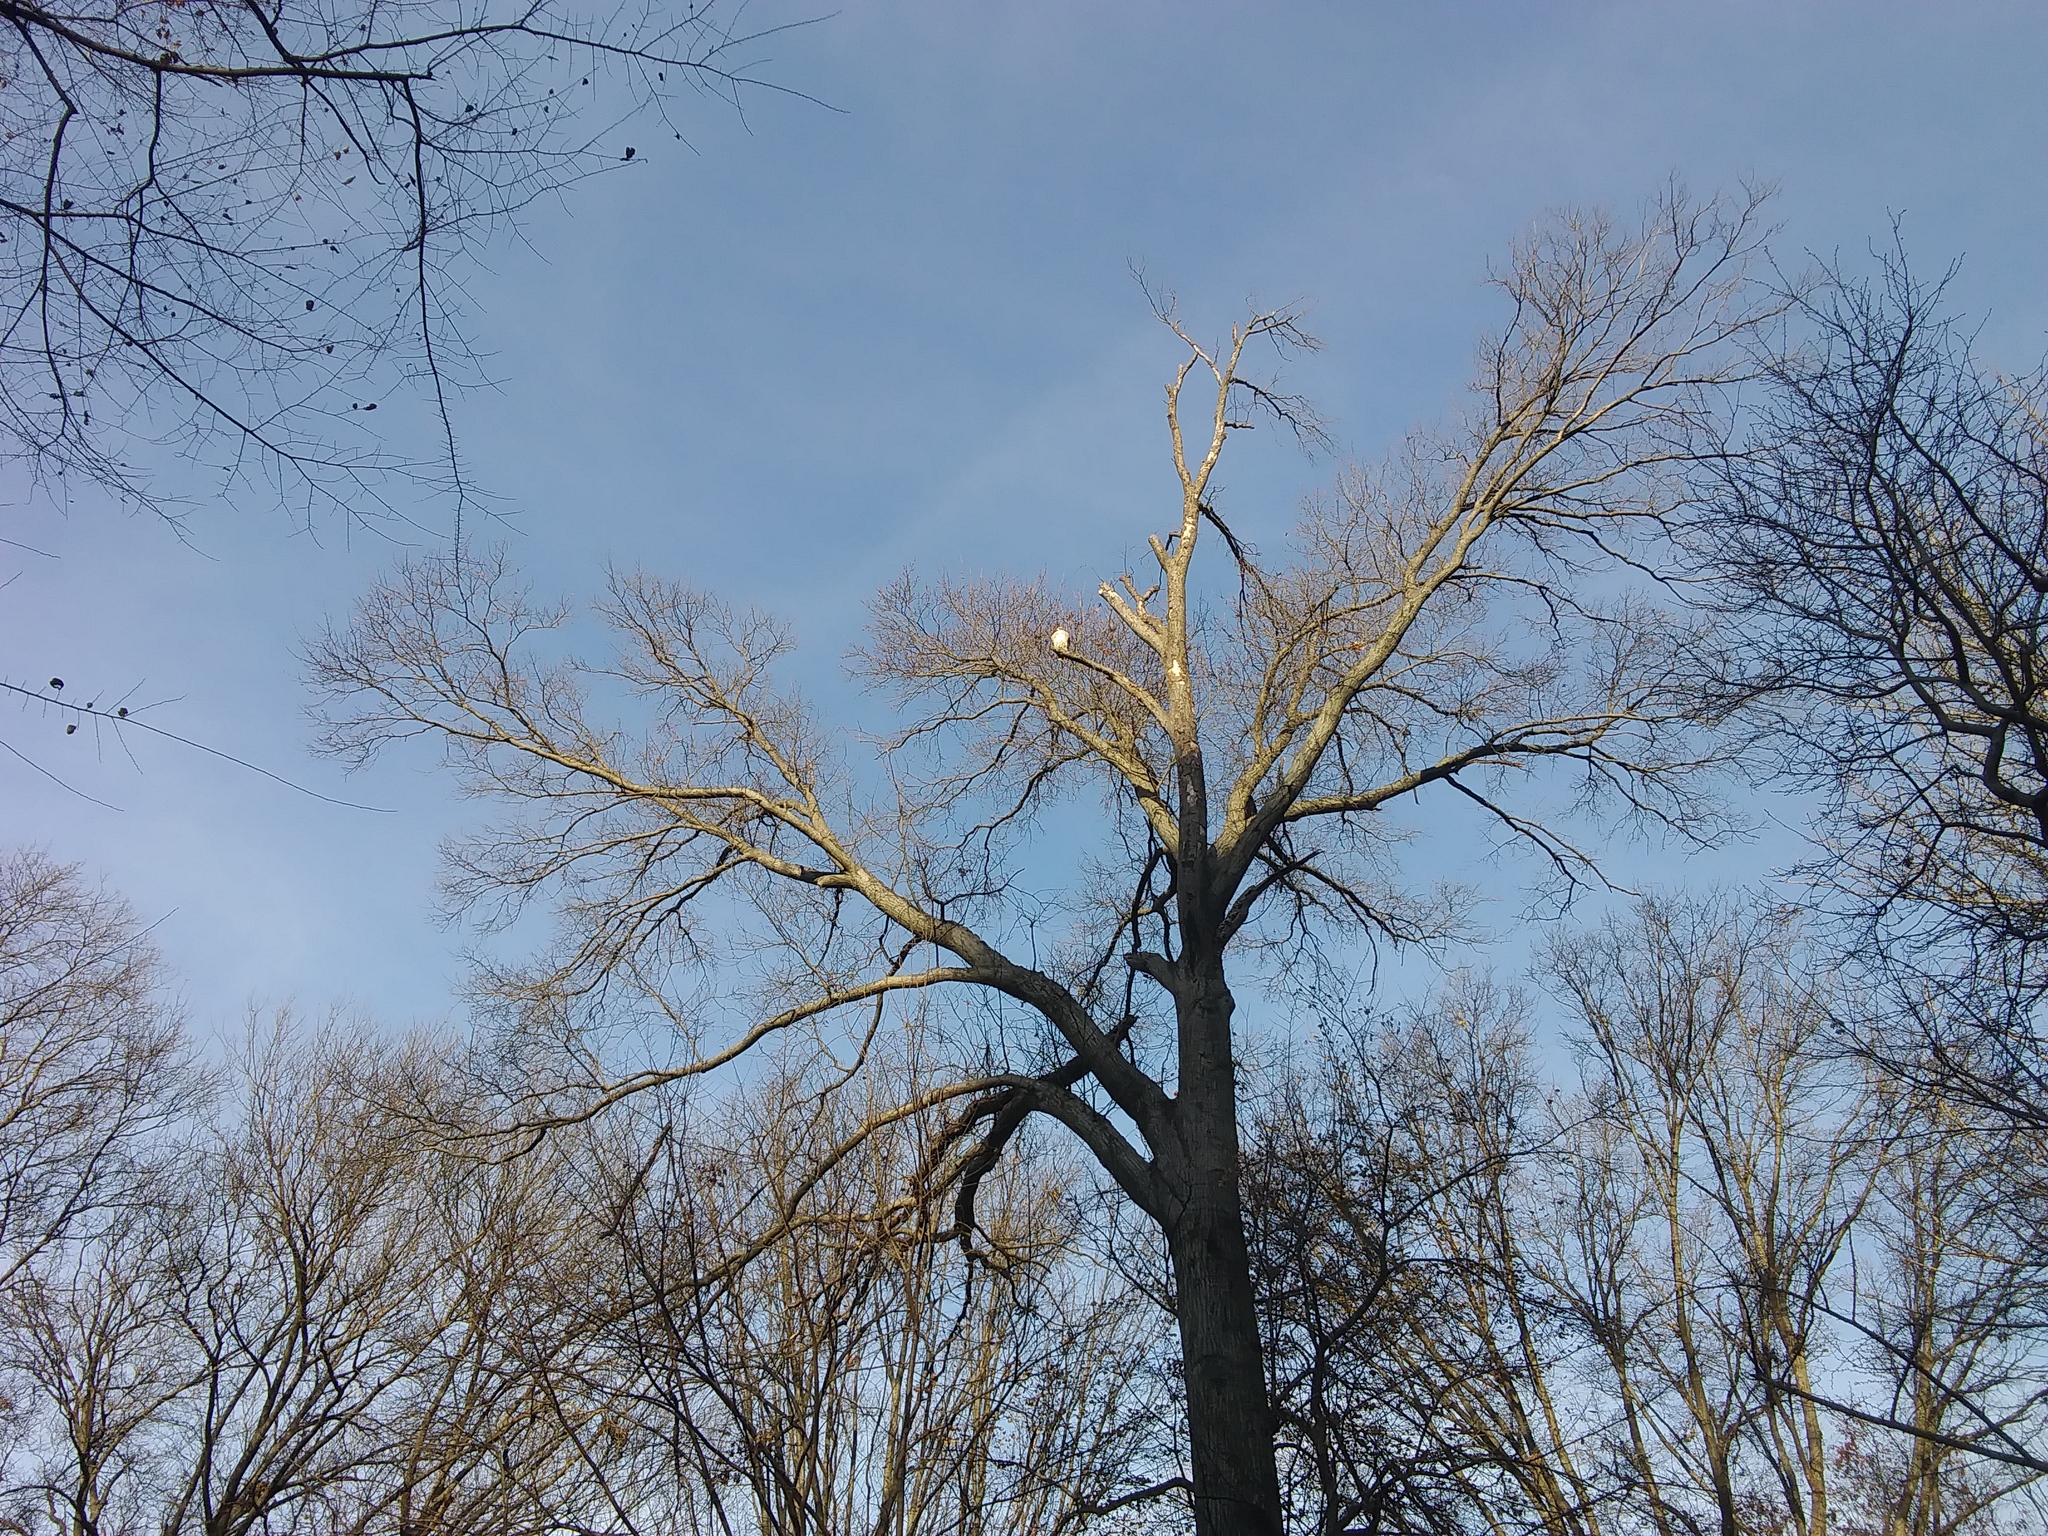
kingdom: Animalia
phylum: Chordata
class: Aves
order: Accipitriformes
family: Accipitridae
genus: Buteo
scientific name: Buteo jamaicensis
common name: Red-tailed hawk
